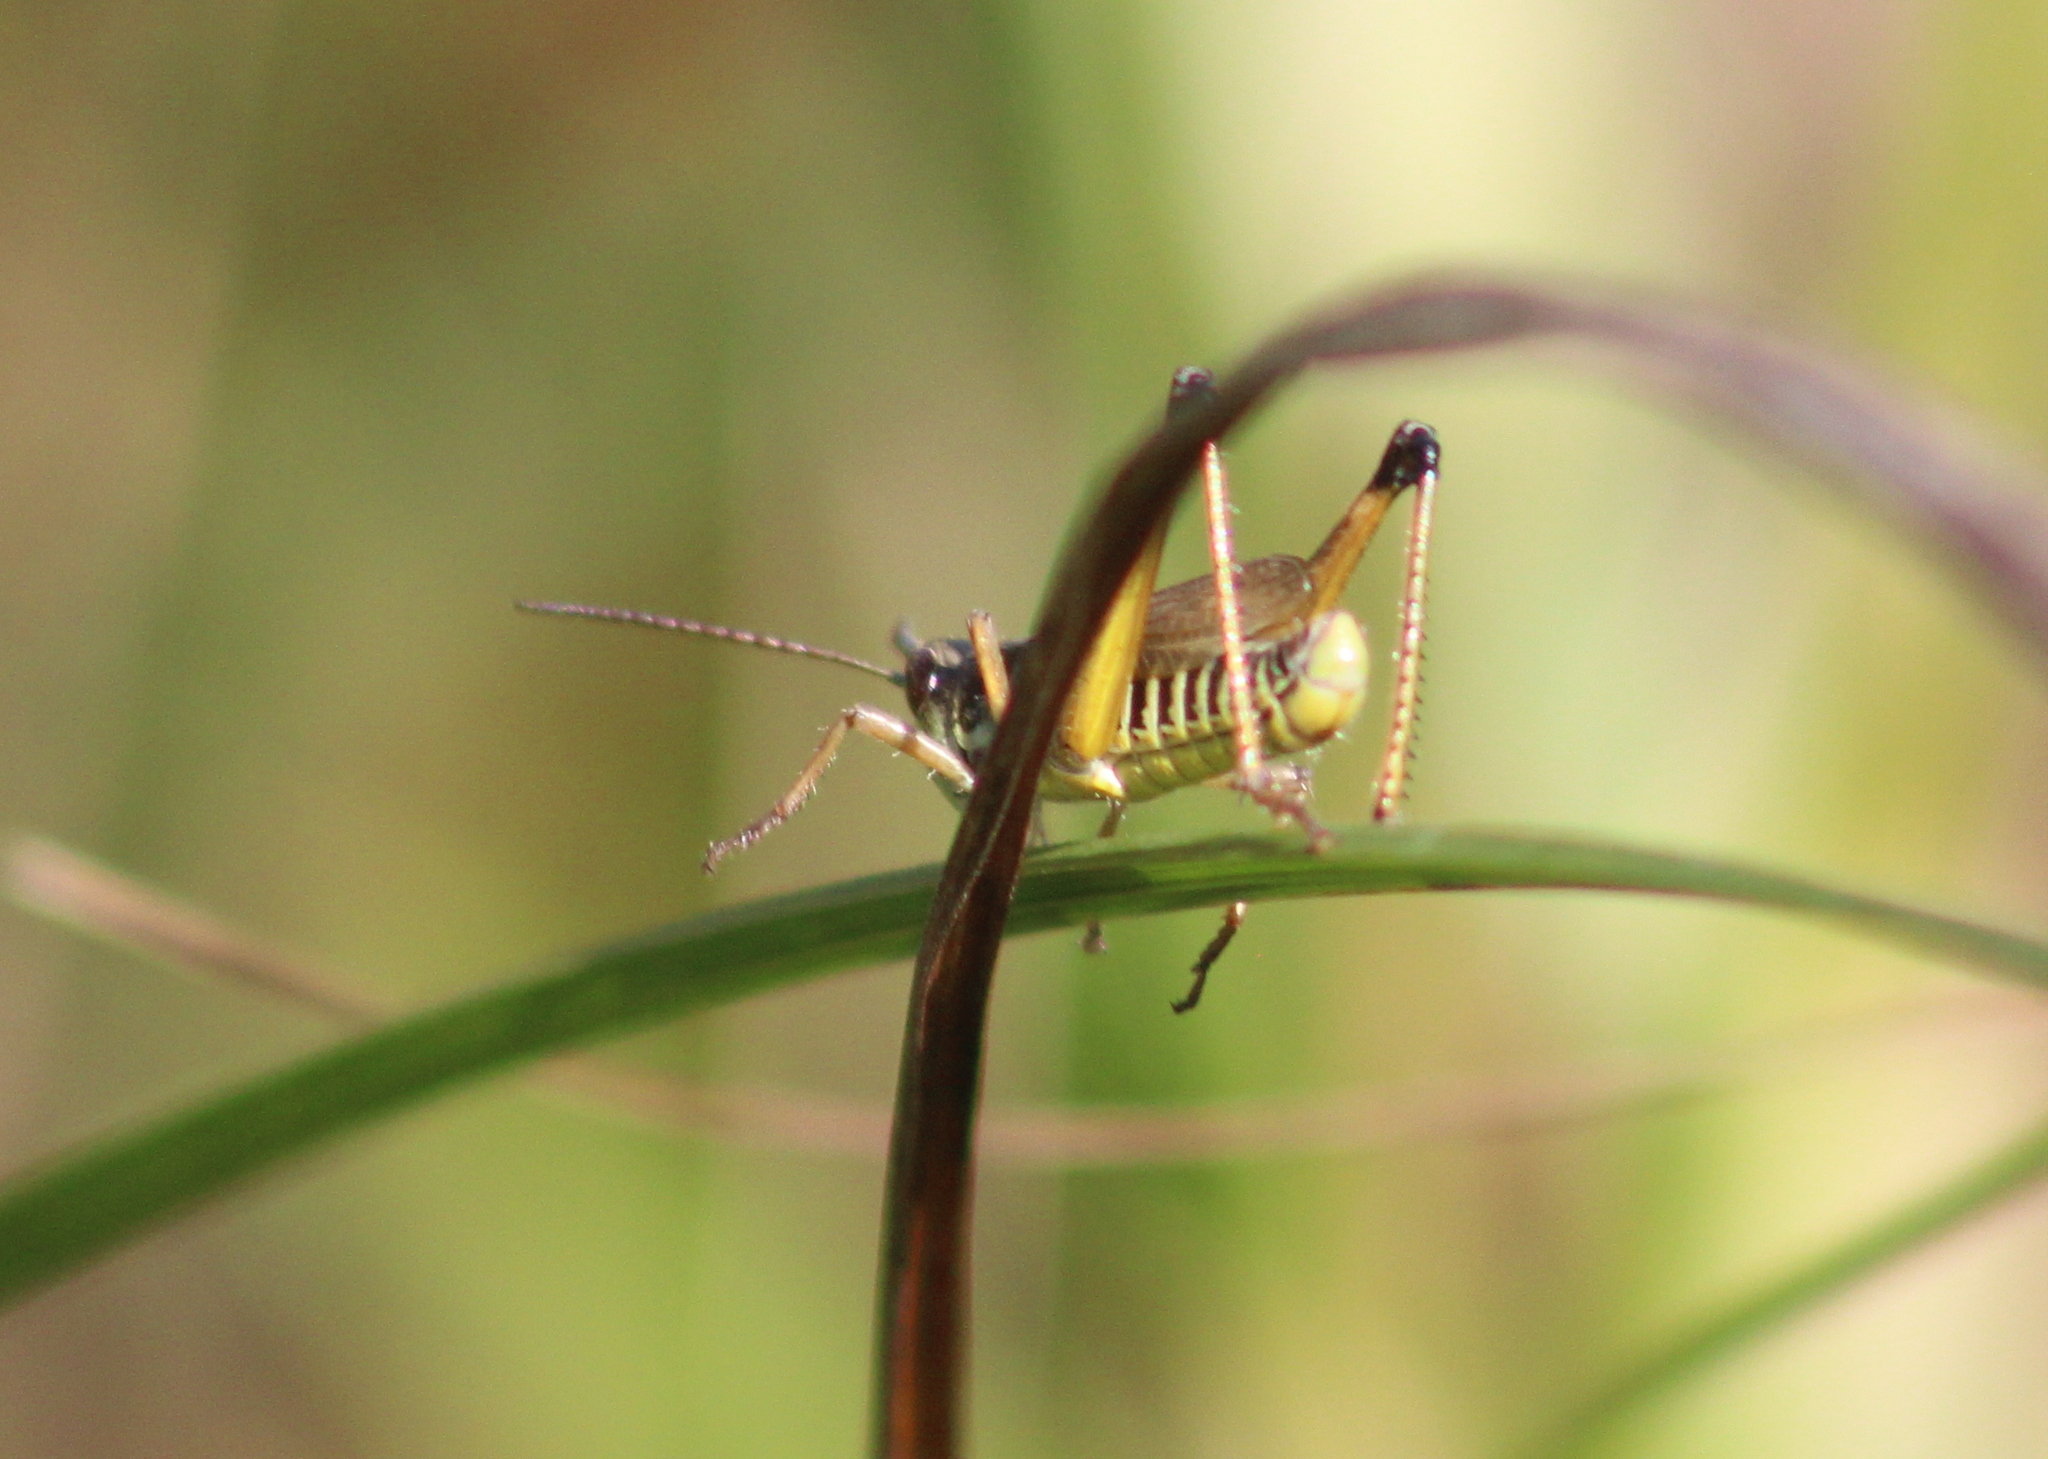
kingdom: Animalia
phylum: Arthropoda
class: Insecta
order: Orthoptera
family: Acrididae
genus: Pseudochorthippus
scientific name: Pseudochorthippus curtipennis
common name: Marsh meadow grasshopper
